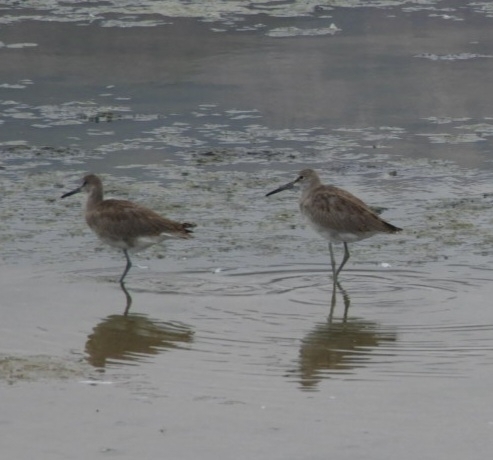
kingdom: Animalia
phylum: Chordata
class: Aves
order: Charadriiformes
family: Scolopacidae
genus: Tringa
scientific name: Tringa semipalmata
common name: Willet
